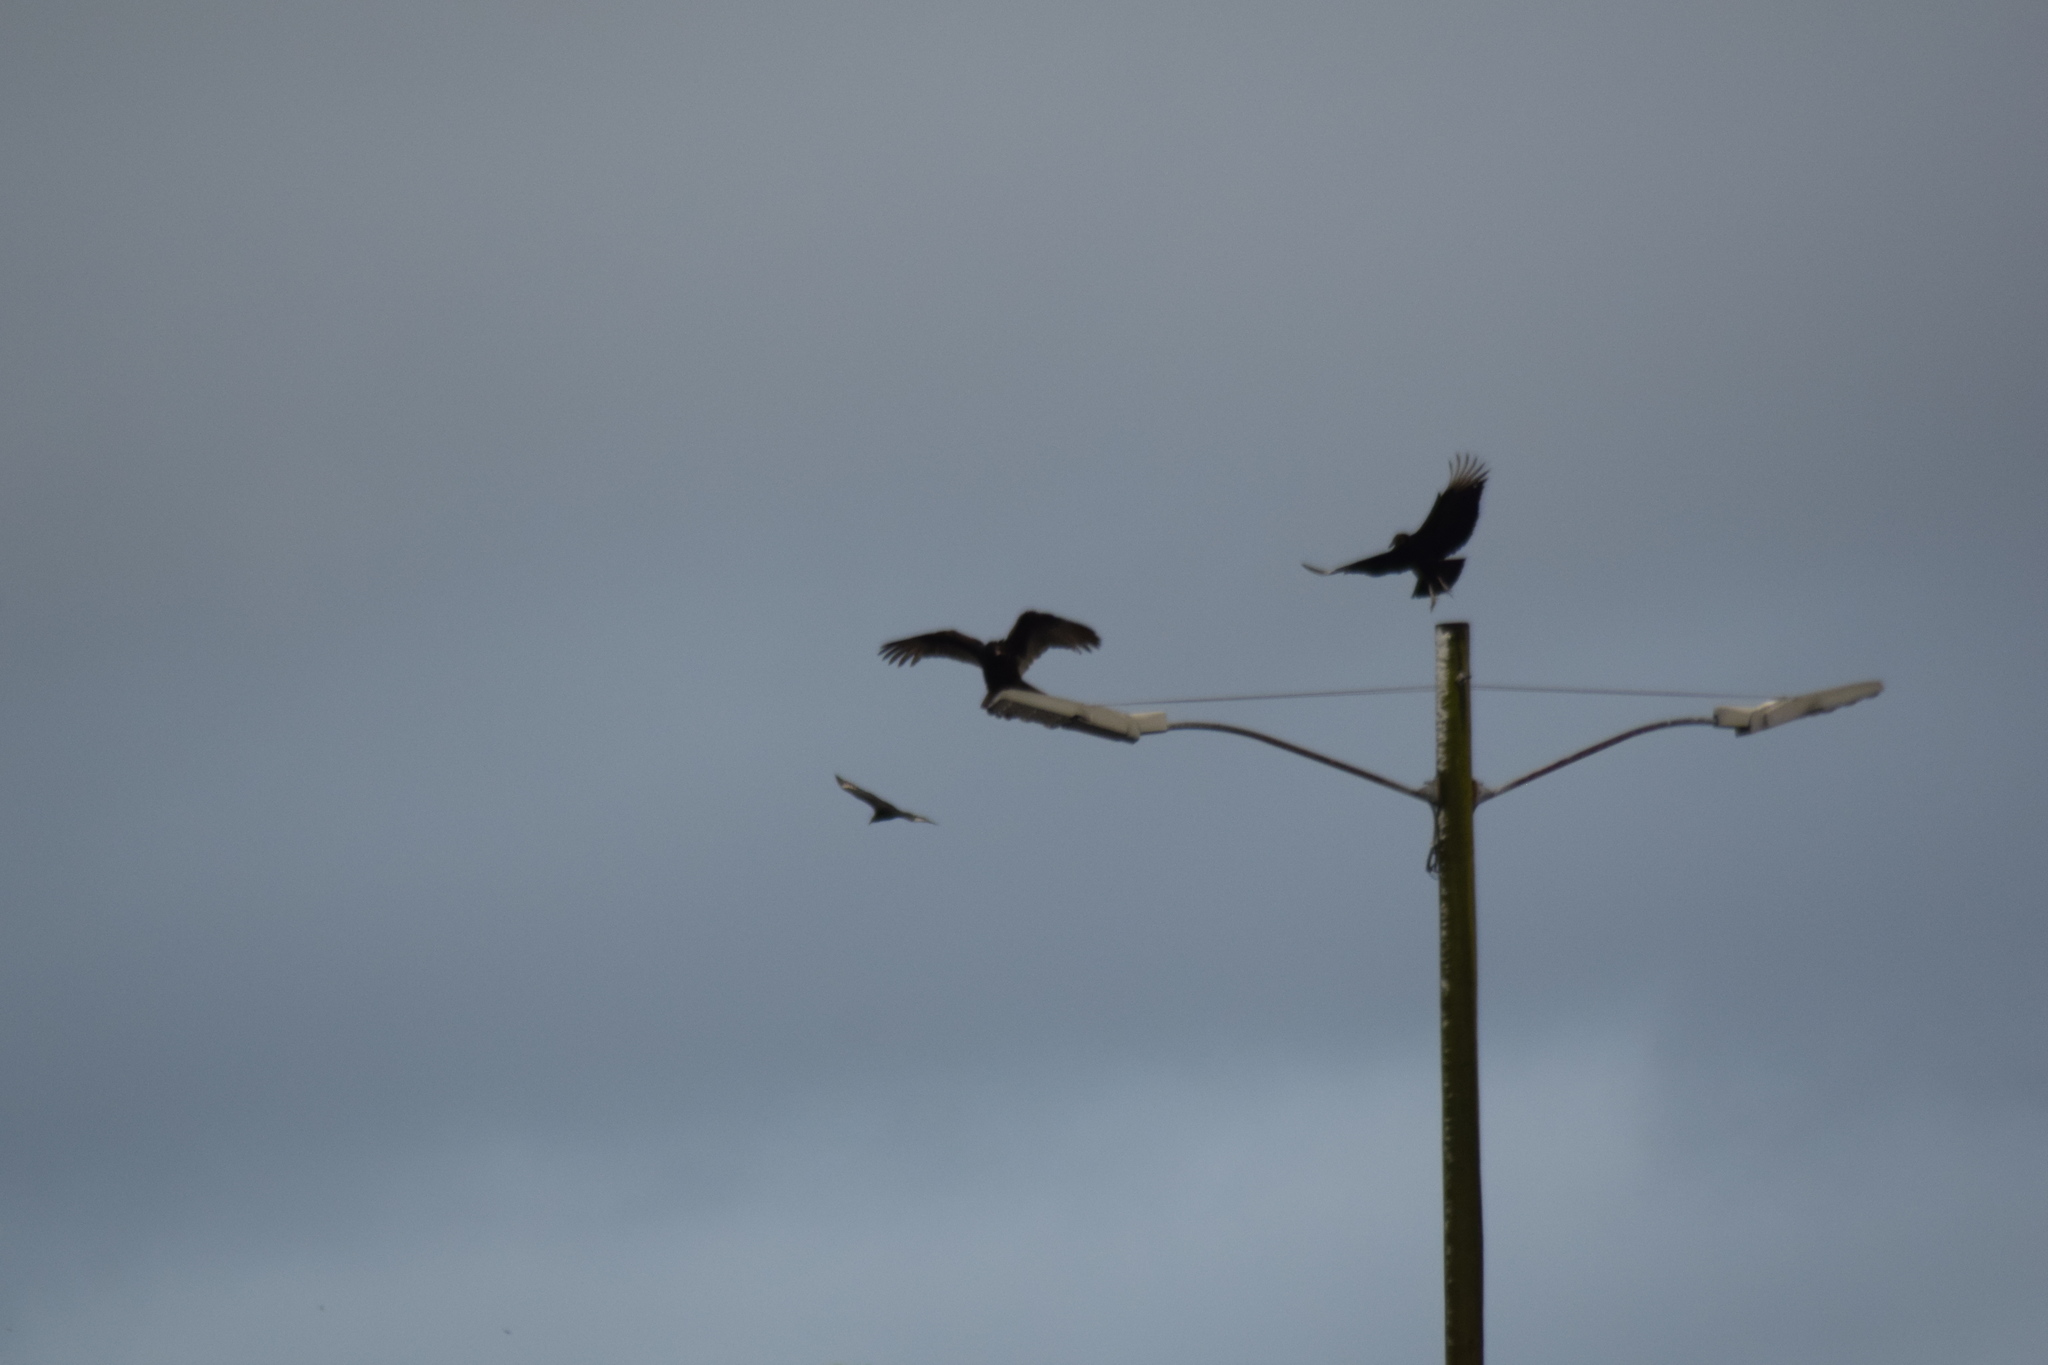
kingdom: Animalia
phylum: Chordata
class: Aves
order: Accipitriformes
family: Cathartidae
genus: Cathartes
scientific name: Cathartes aura
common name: Turkey vulture
